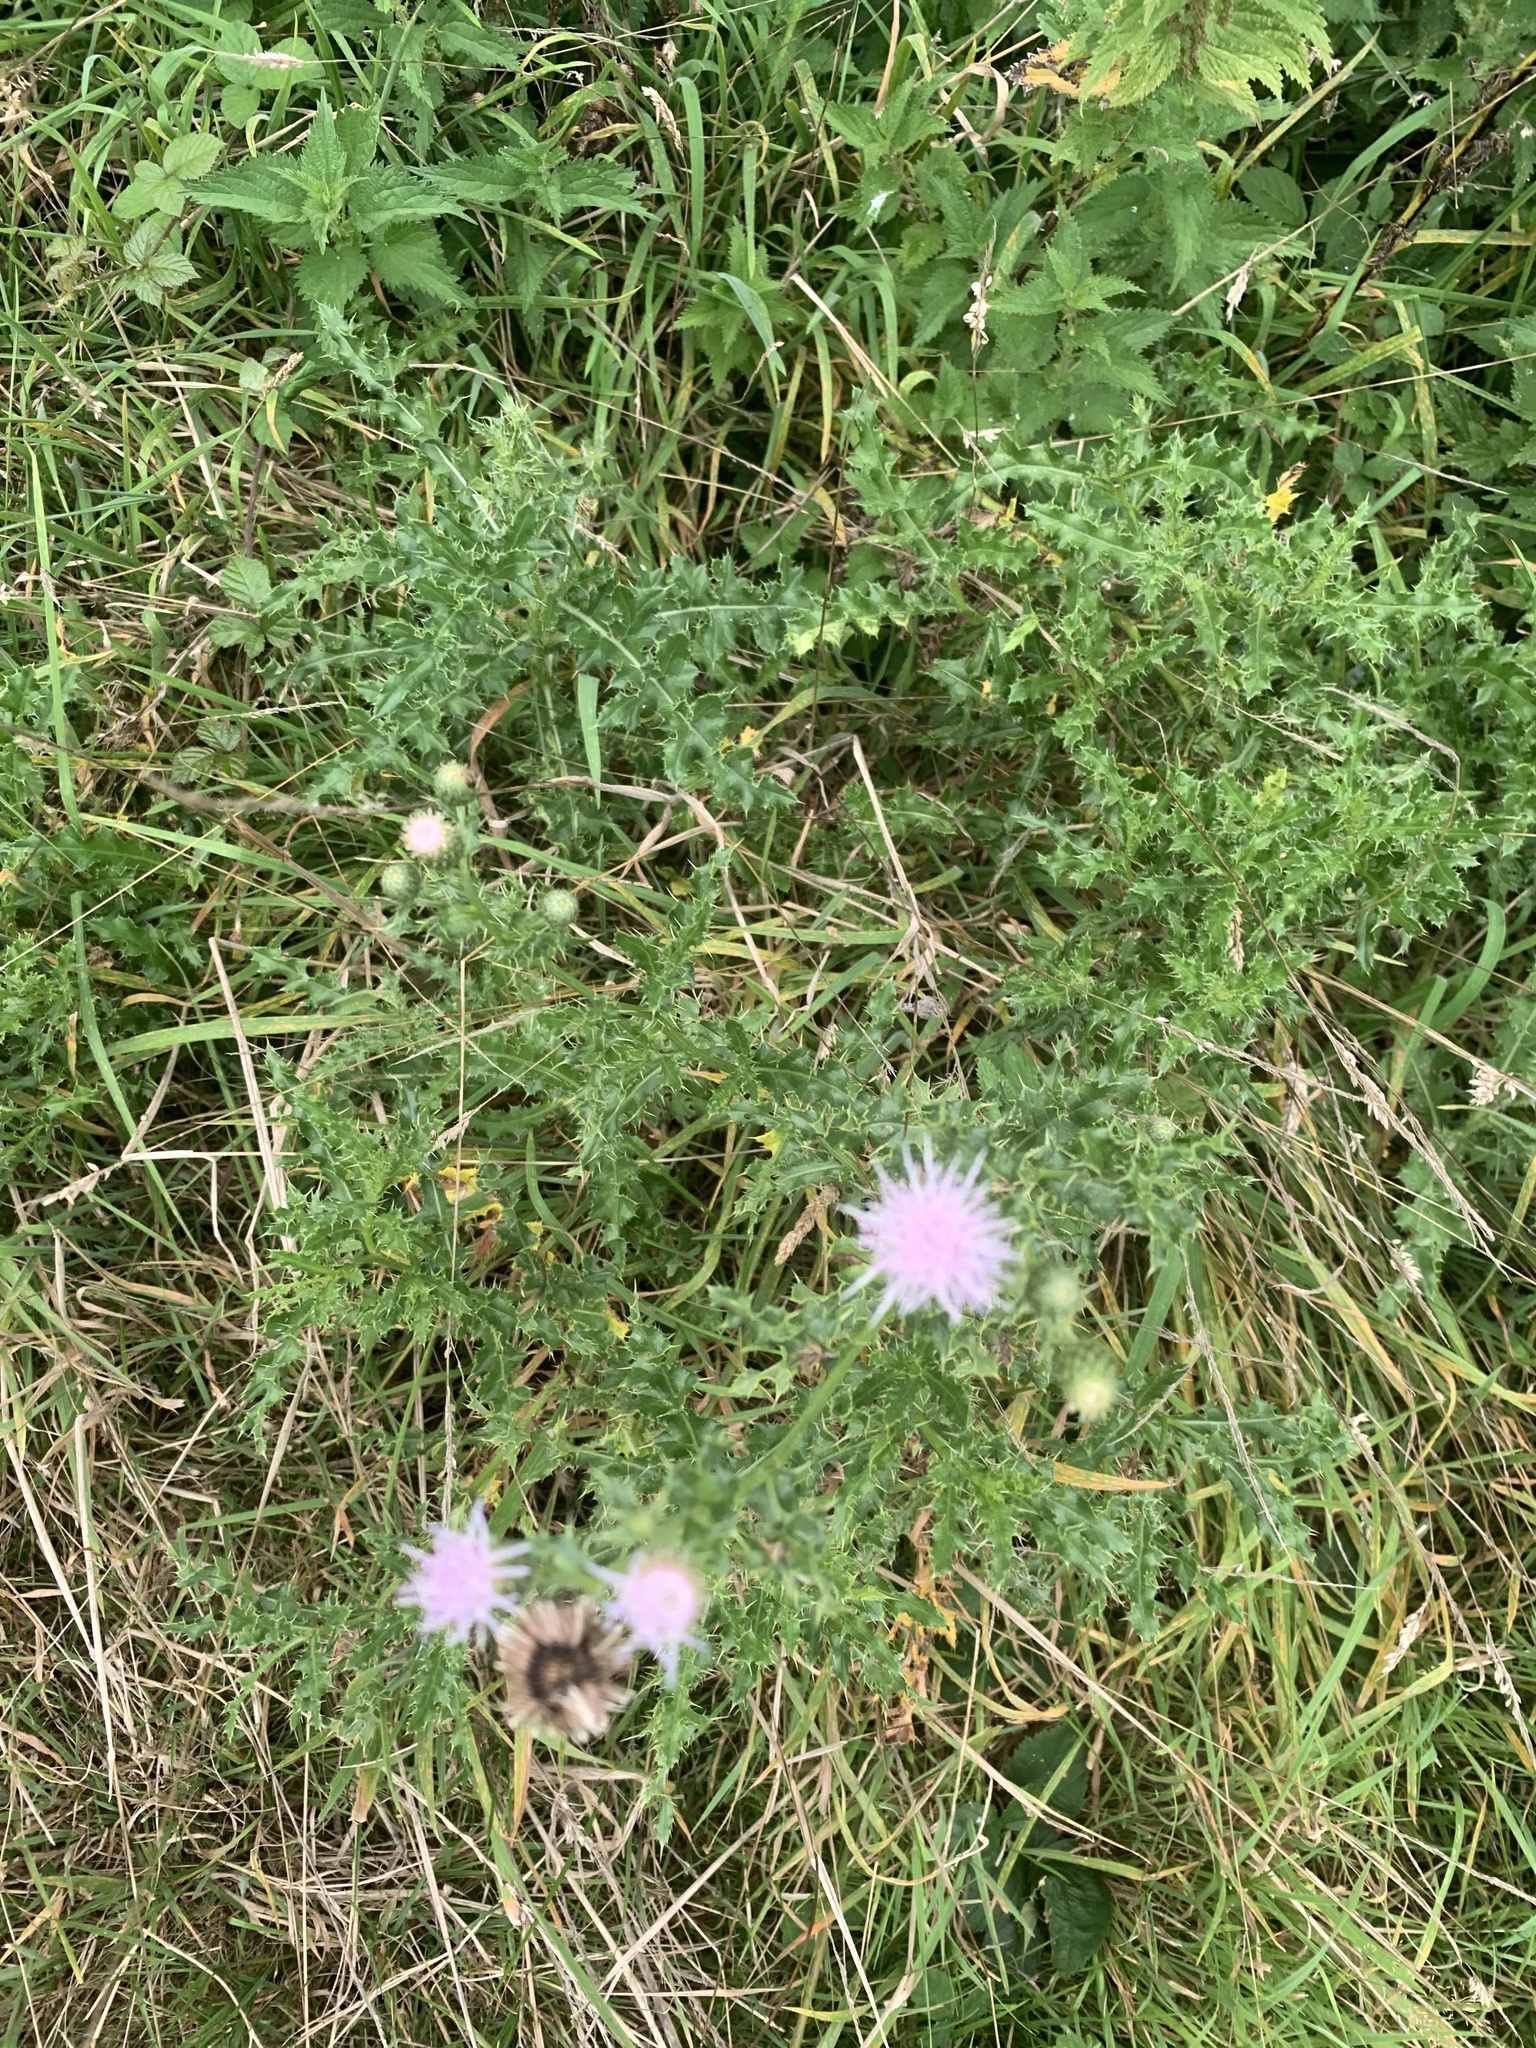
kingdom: Plantae
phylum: Tracheophyta
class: Magnoliopsida
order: Asterales
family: Asteraceae
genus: Cirsium
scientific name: Cirsium arvense
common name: Creeping thistle
